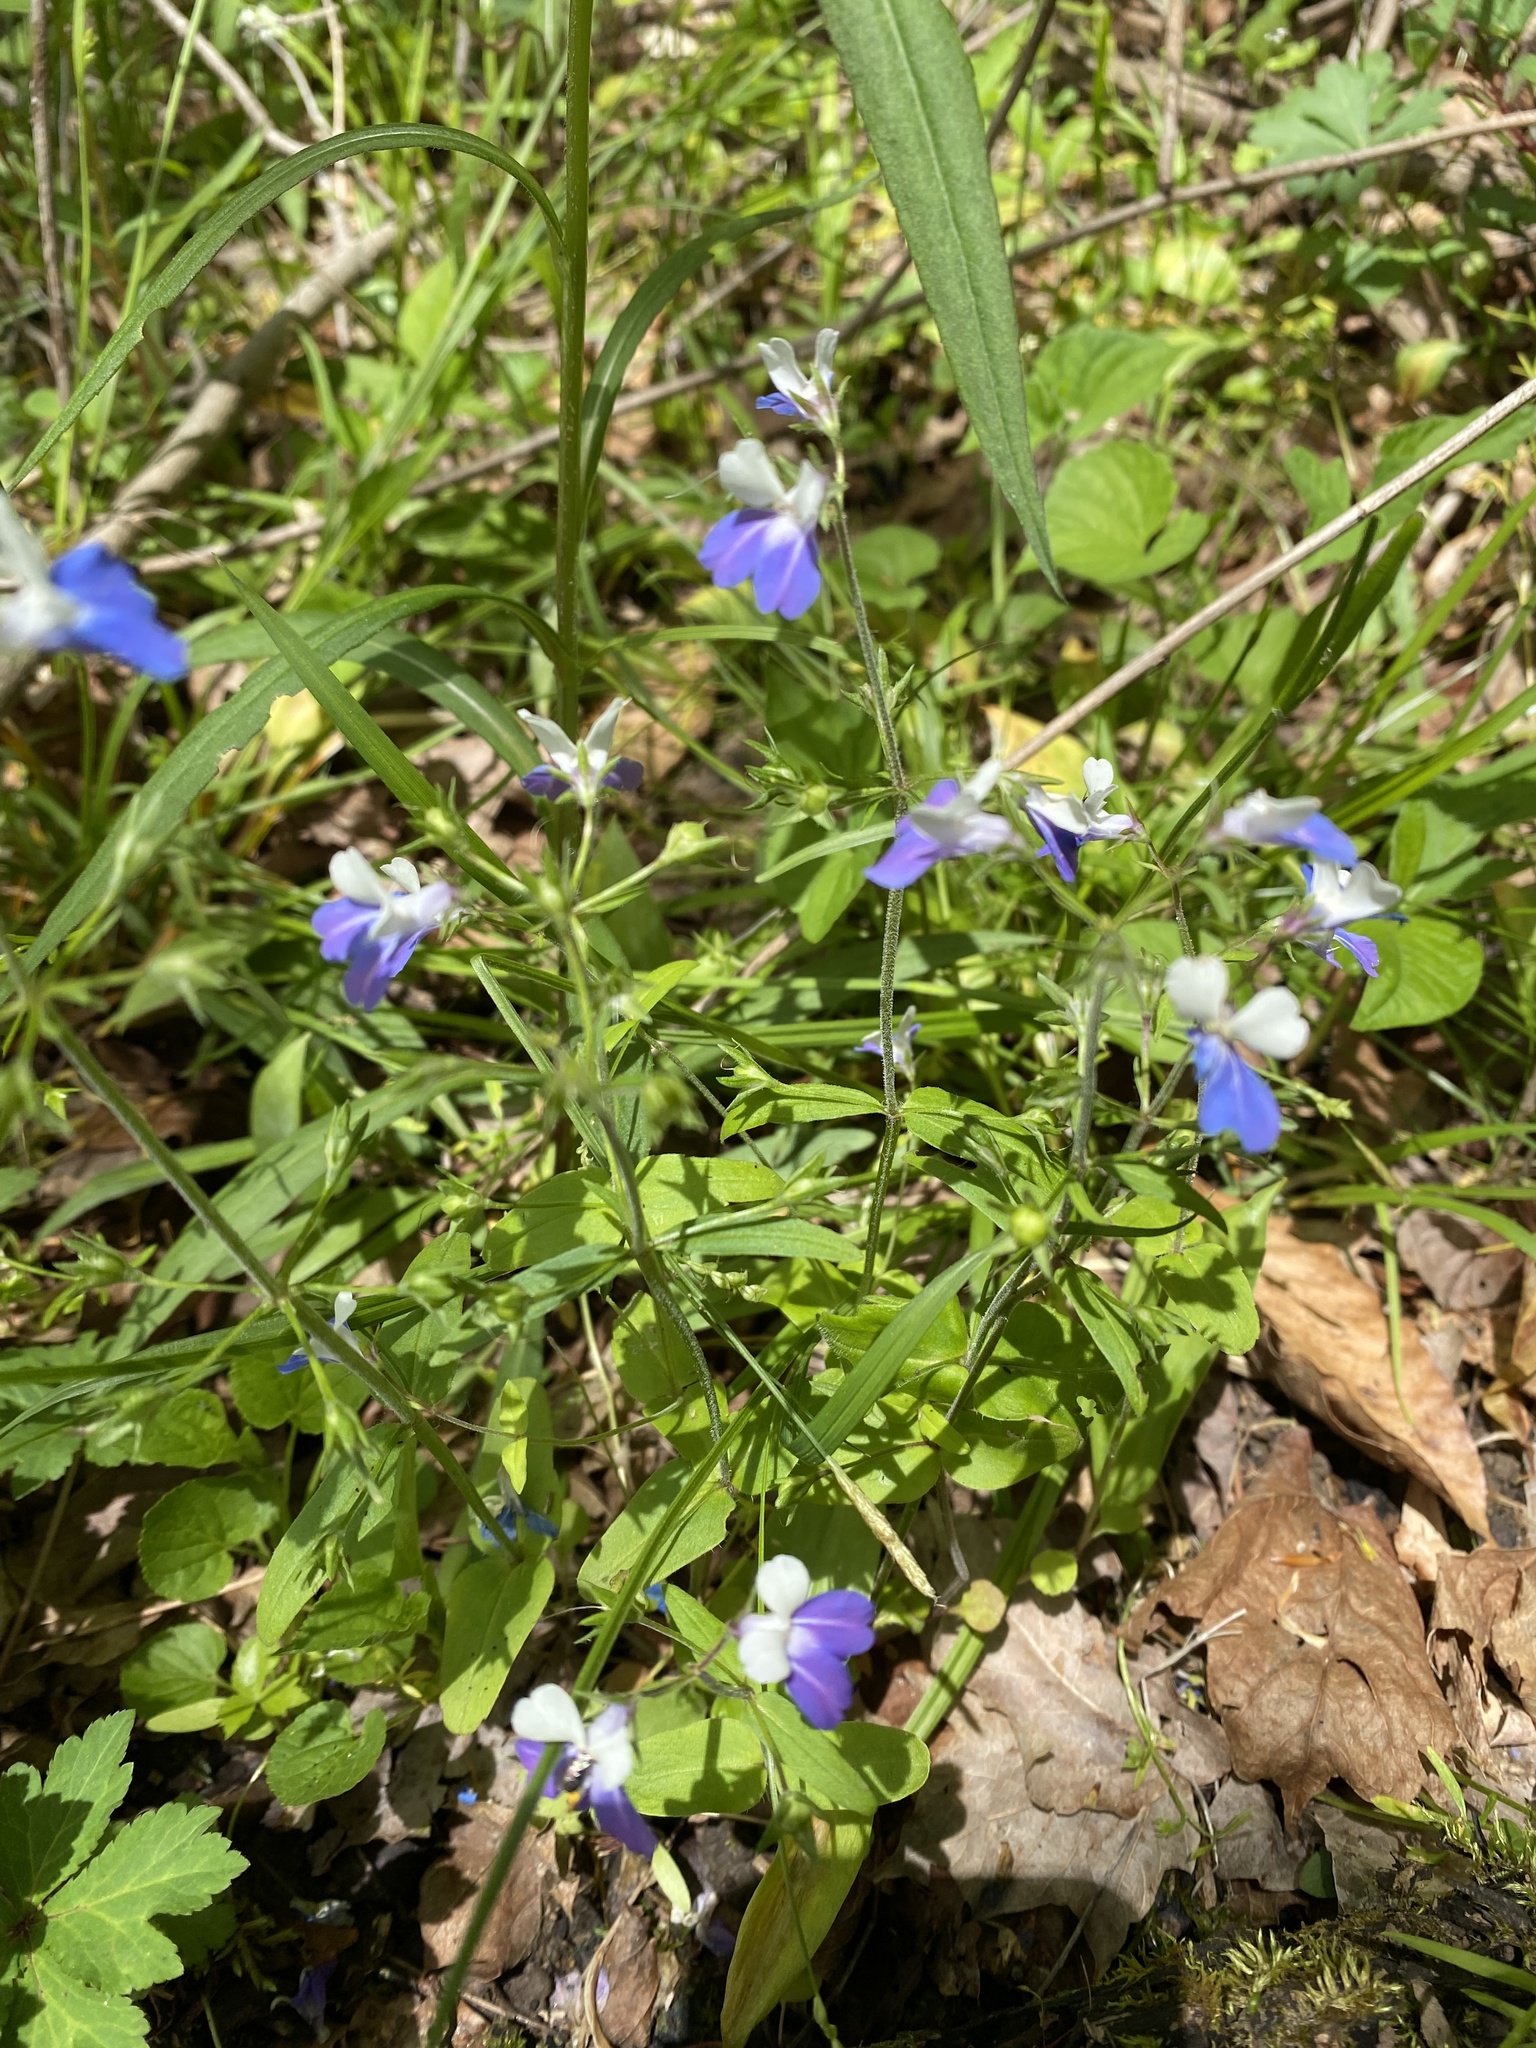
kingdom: Plantae
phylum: Tracheophyta
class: Magnoliopsida
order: Lamiales
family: Plantaginaceae
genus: Collinsia
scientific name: Collinsia verna
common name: Broad-leaved collinsia
